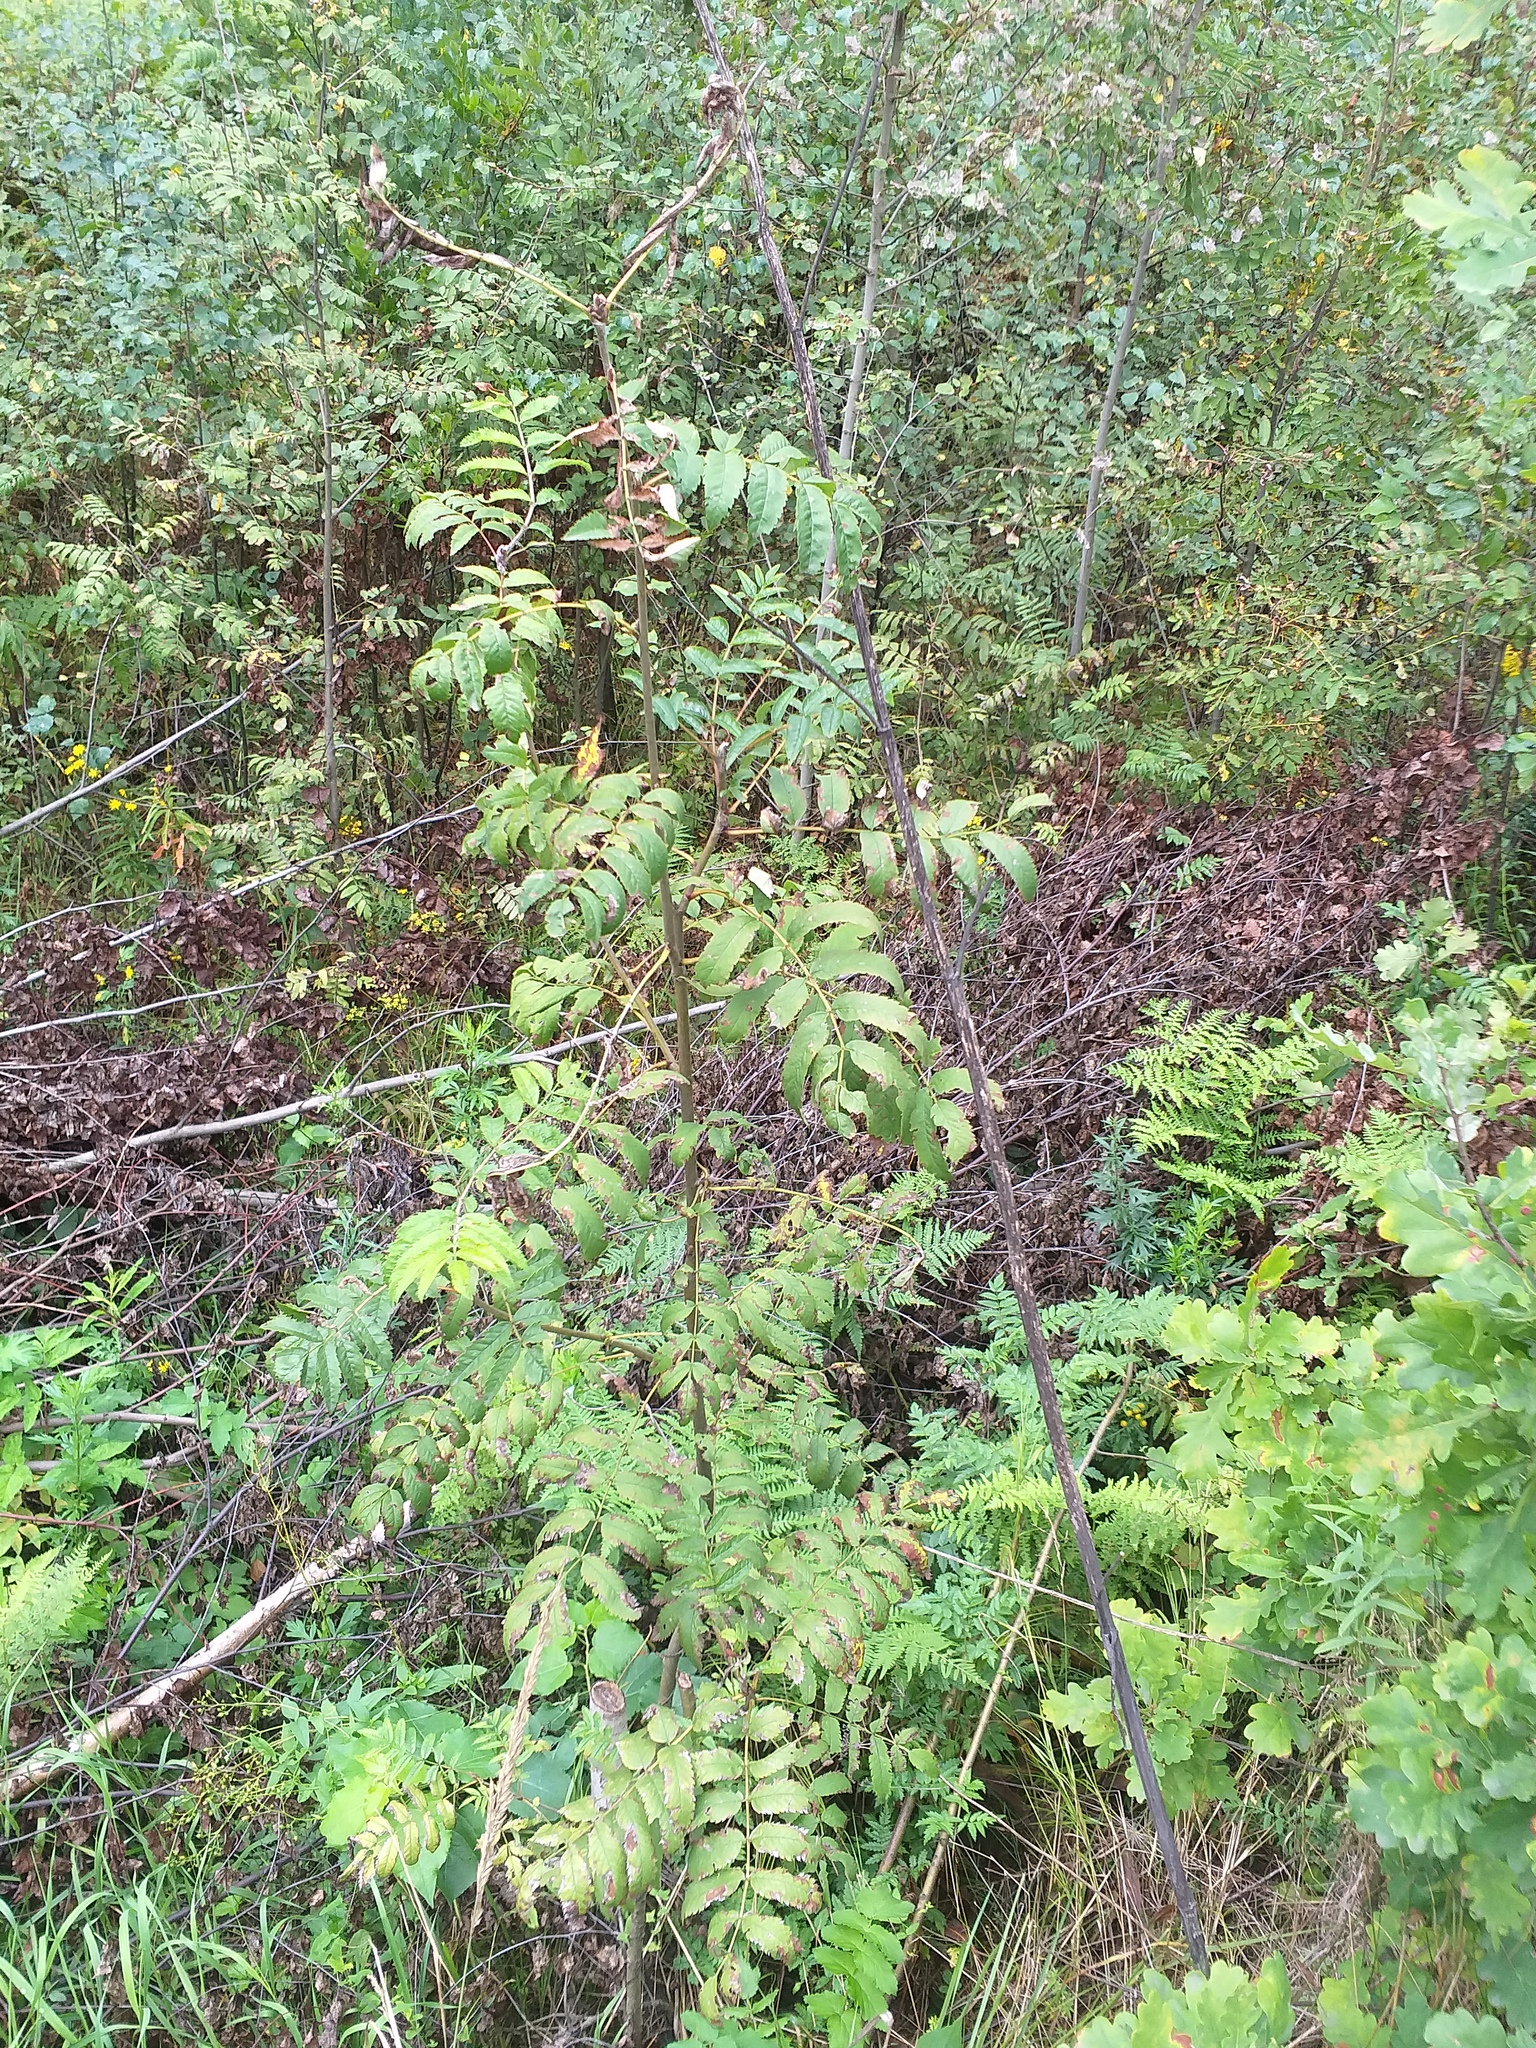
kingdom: Plantae
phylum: Tracheophyta
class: Magnoliopsida
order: Rosales
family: Rosaceae
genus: Sorbus
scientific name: Sorbus aucuparia
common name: Rowan
